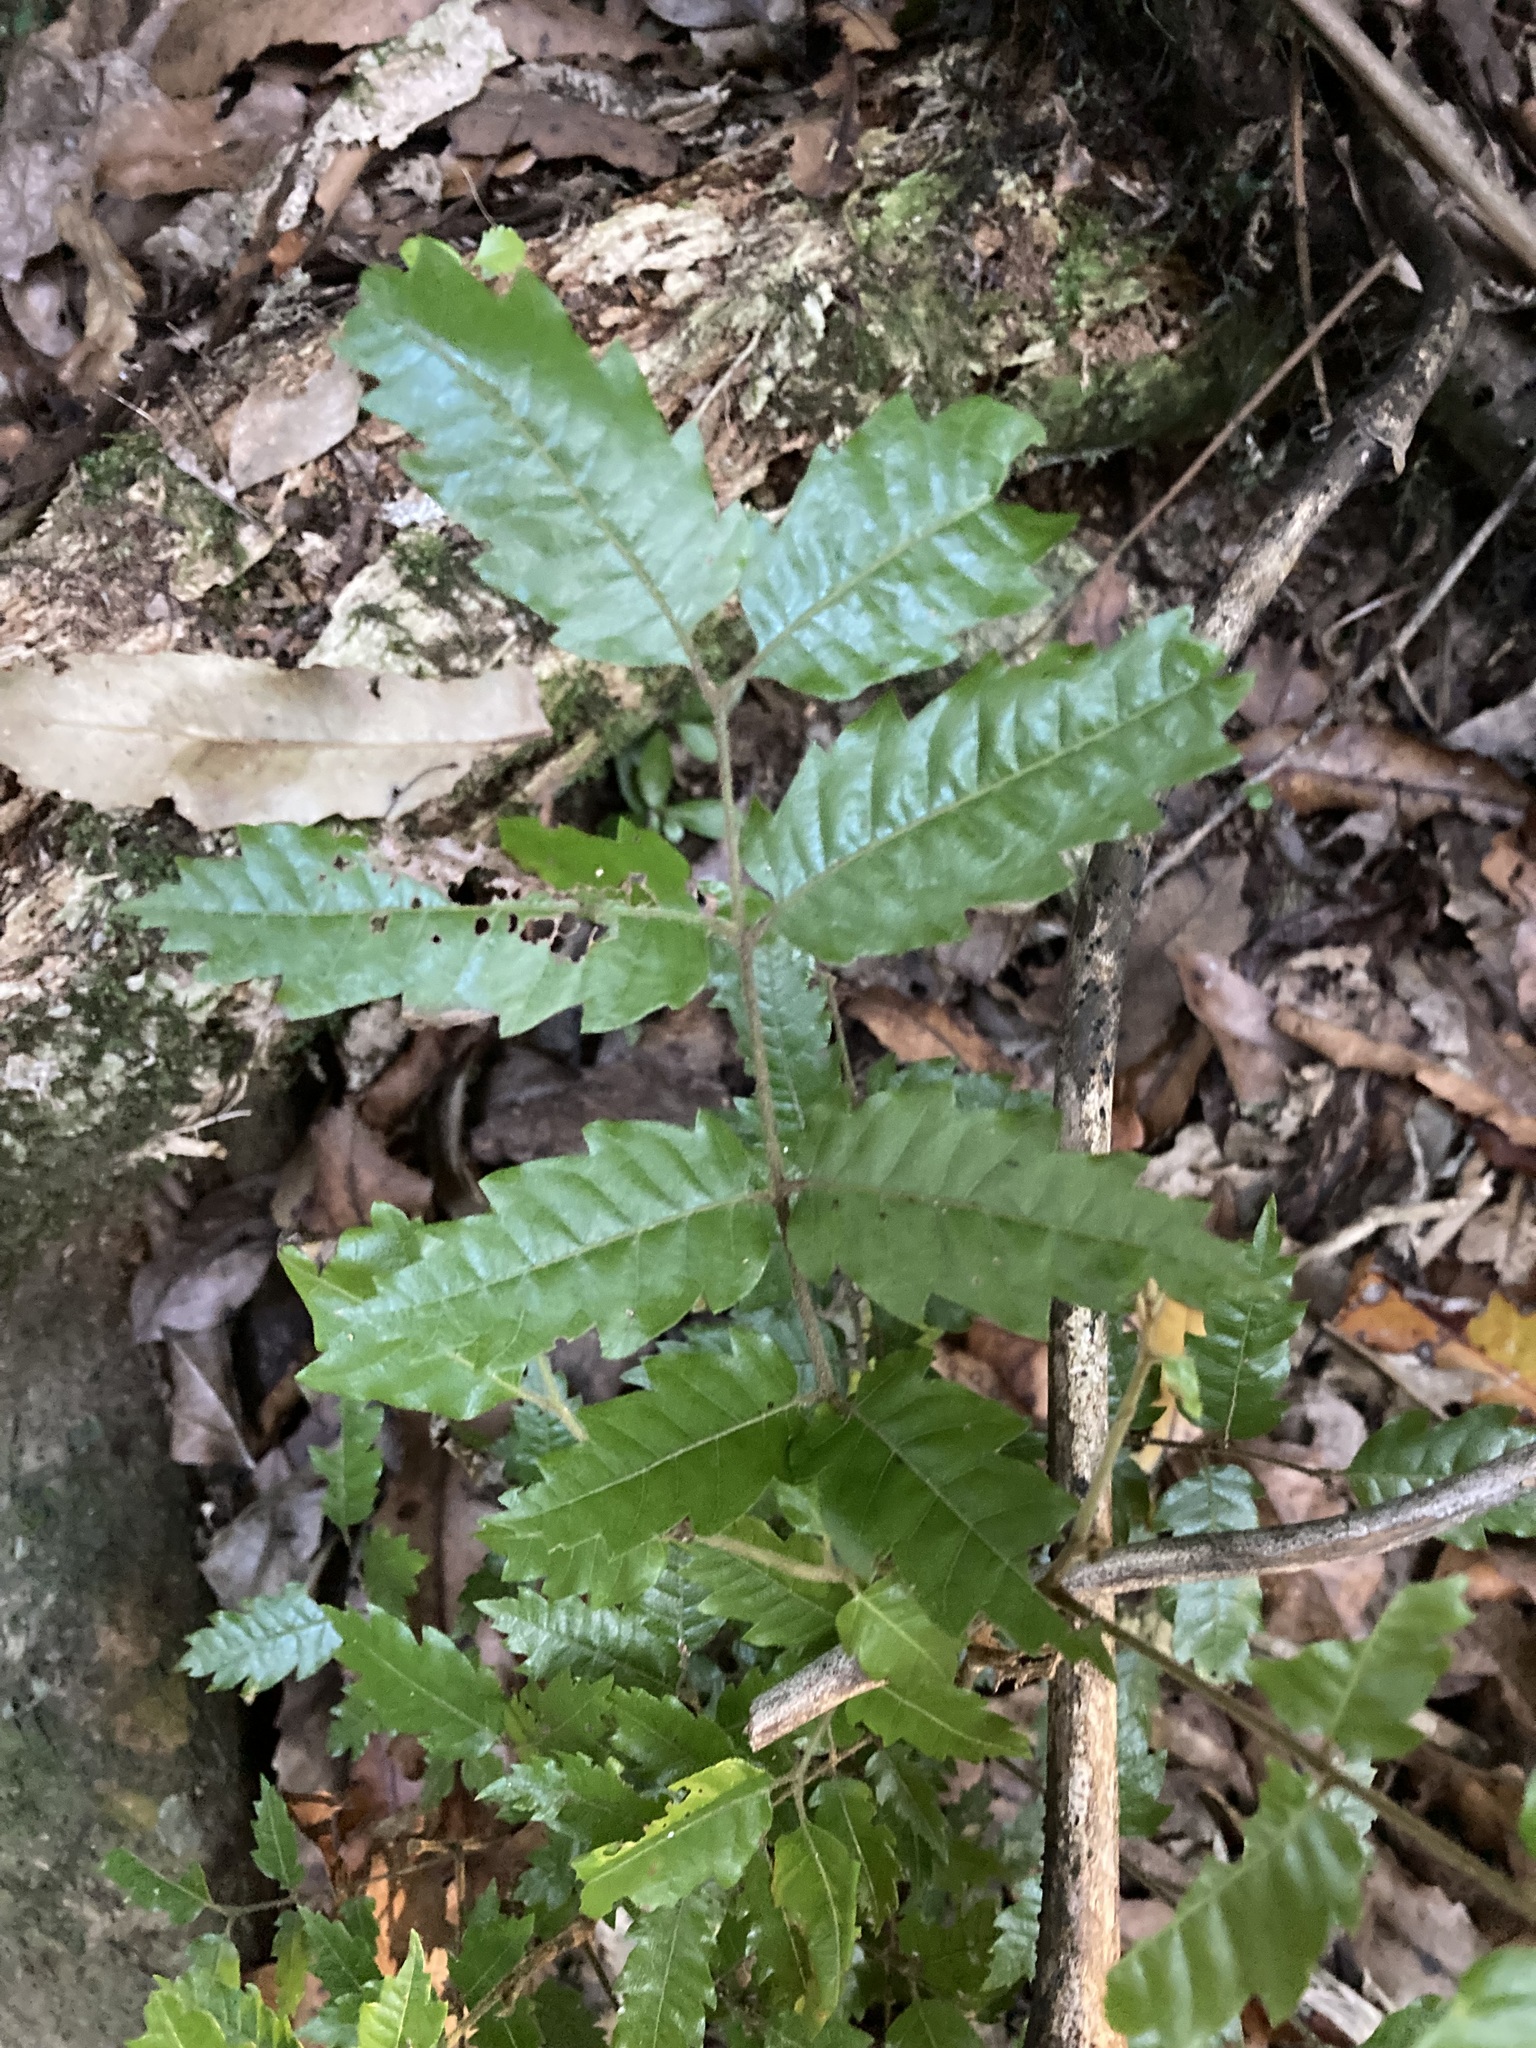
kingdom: Plantae
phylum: Tracheophyta
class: Magnoliopsida
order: Sapindales
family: Sapindaceae
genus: Alectryon
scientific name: Alectryon excelsus
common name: Three kings titoki
